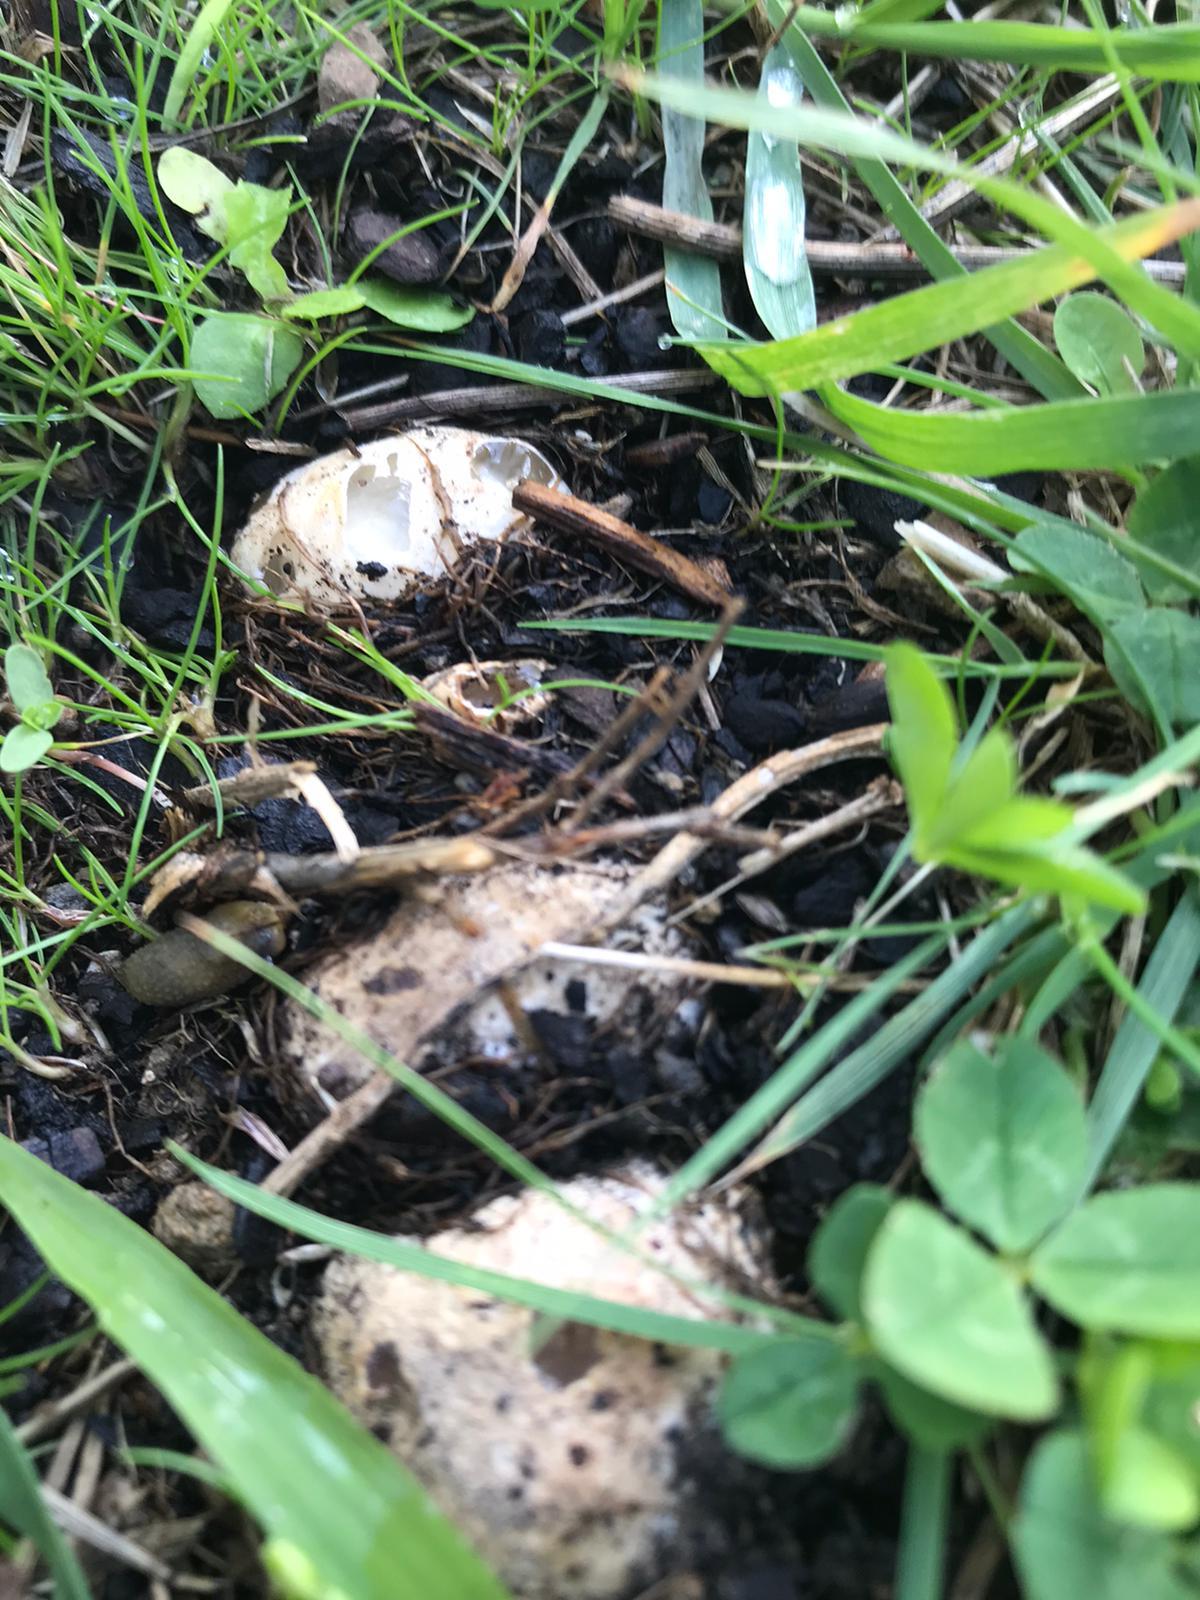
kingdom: Fungi
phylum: Basidiomycota
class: Agaricomycetes
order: Phallales
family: Phallaceae
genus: Ileodictyon
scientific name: Ileodictyon cibarium
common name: Basket fungus
